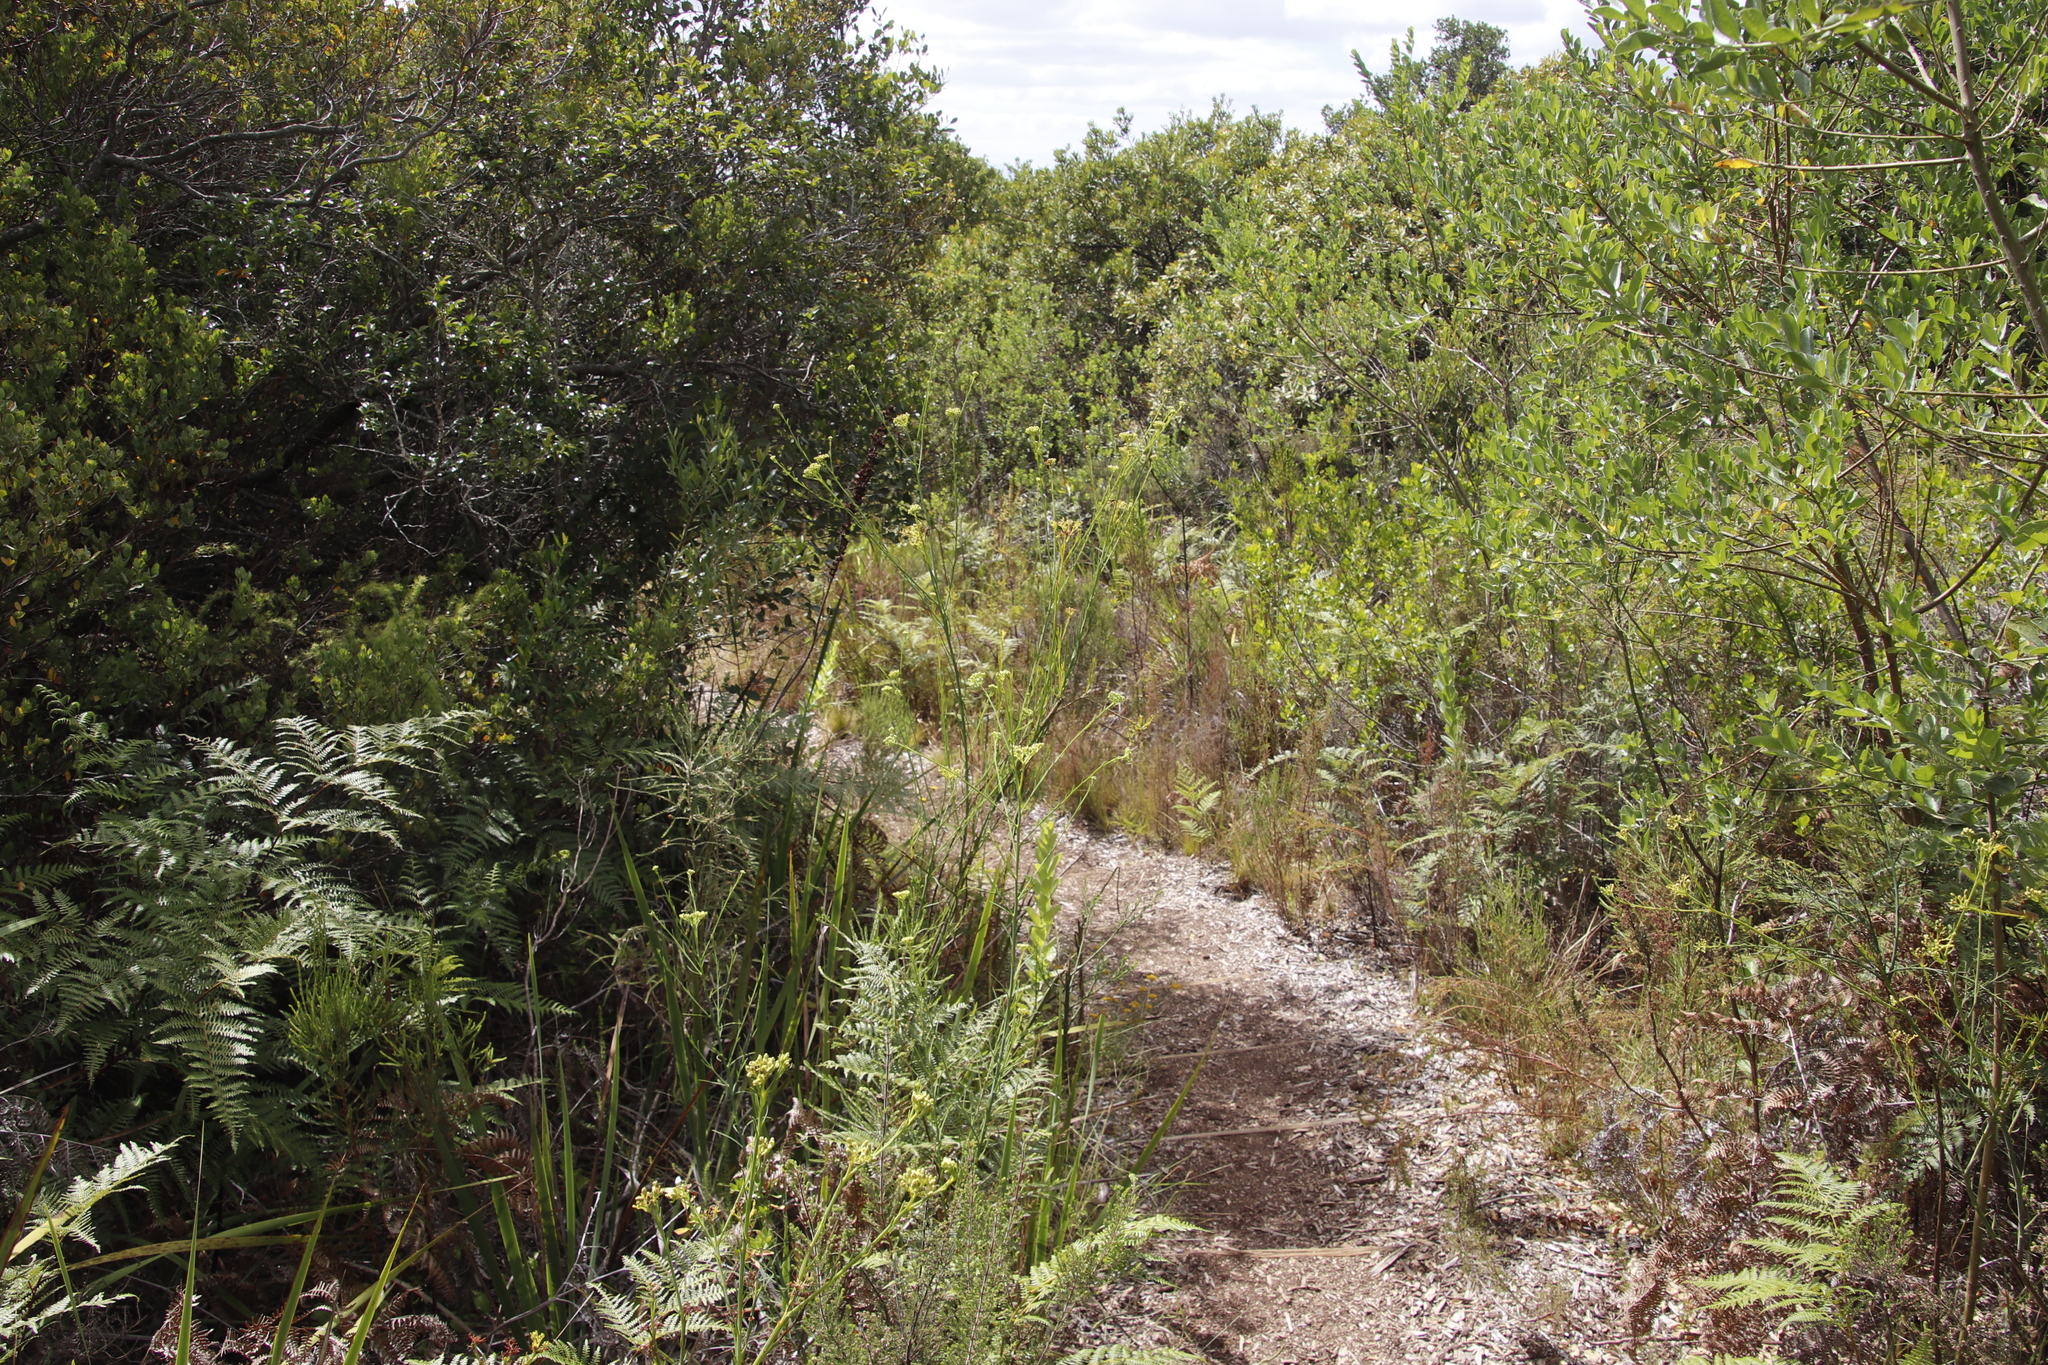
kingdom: Plantae
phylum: Tracheophyta
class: Magnoliopsida
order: Santalales
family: Thesiaceae
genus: Thesium
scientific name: Thesium strictum
